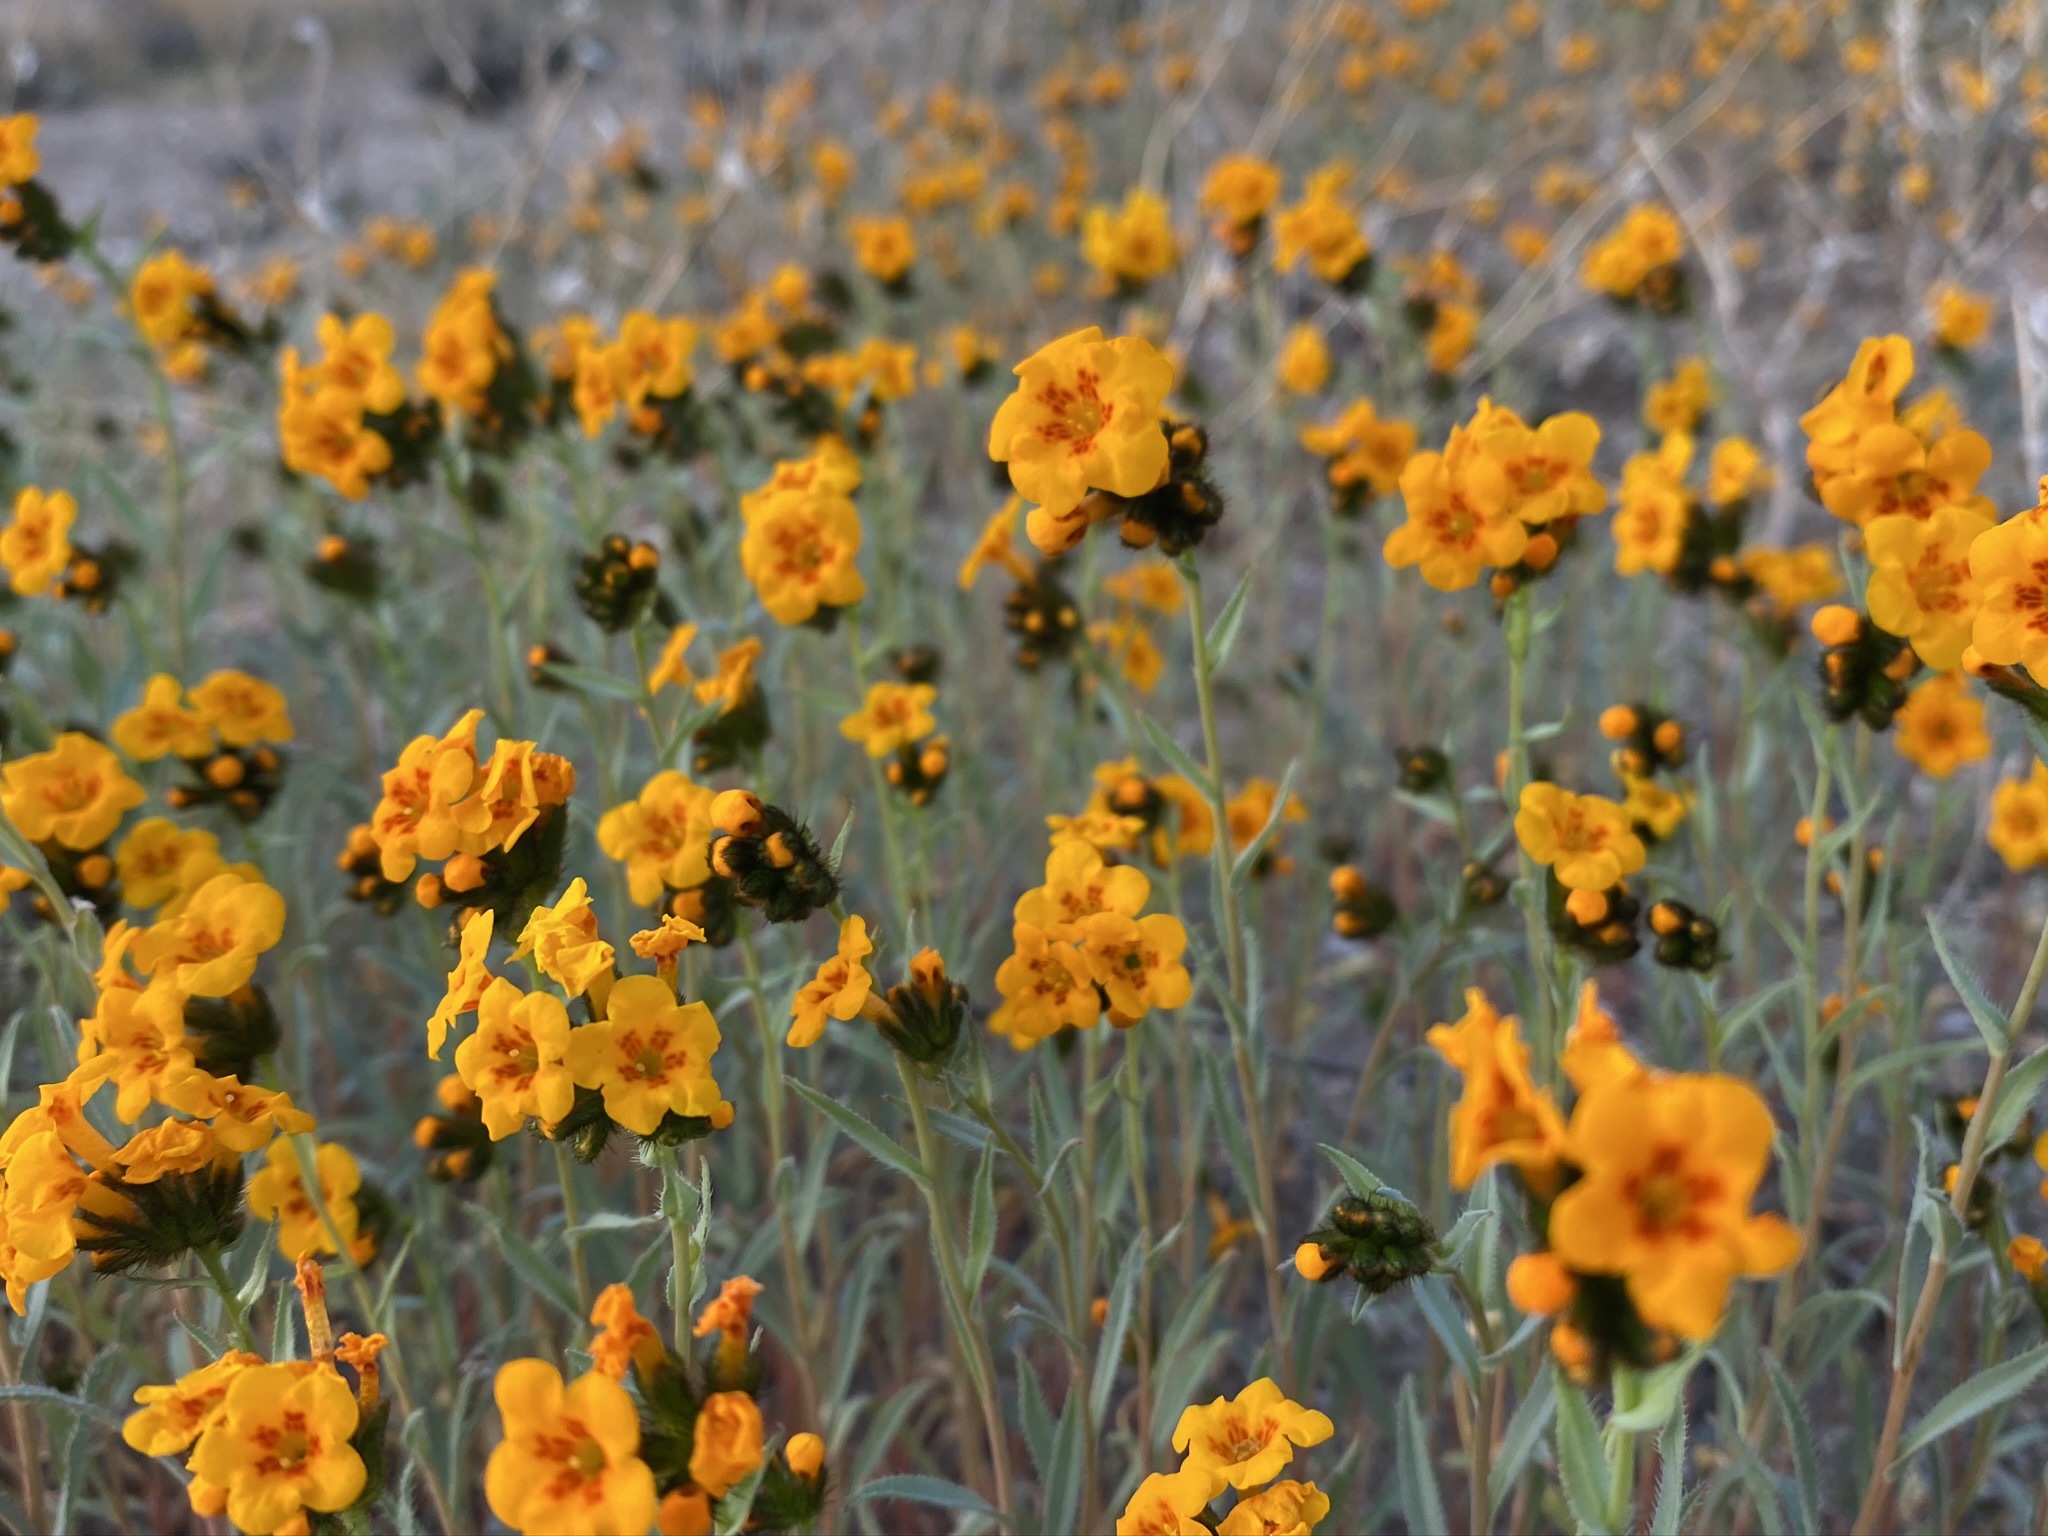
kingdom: Plantae
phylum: Tracheophyta
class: Magnoliopsida
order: Boraginales
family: Boraginaceae
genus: Amsinckia
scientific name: Amsinckia vernicosa
